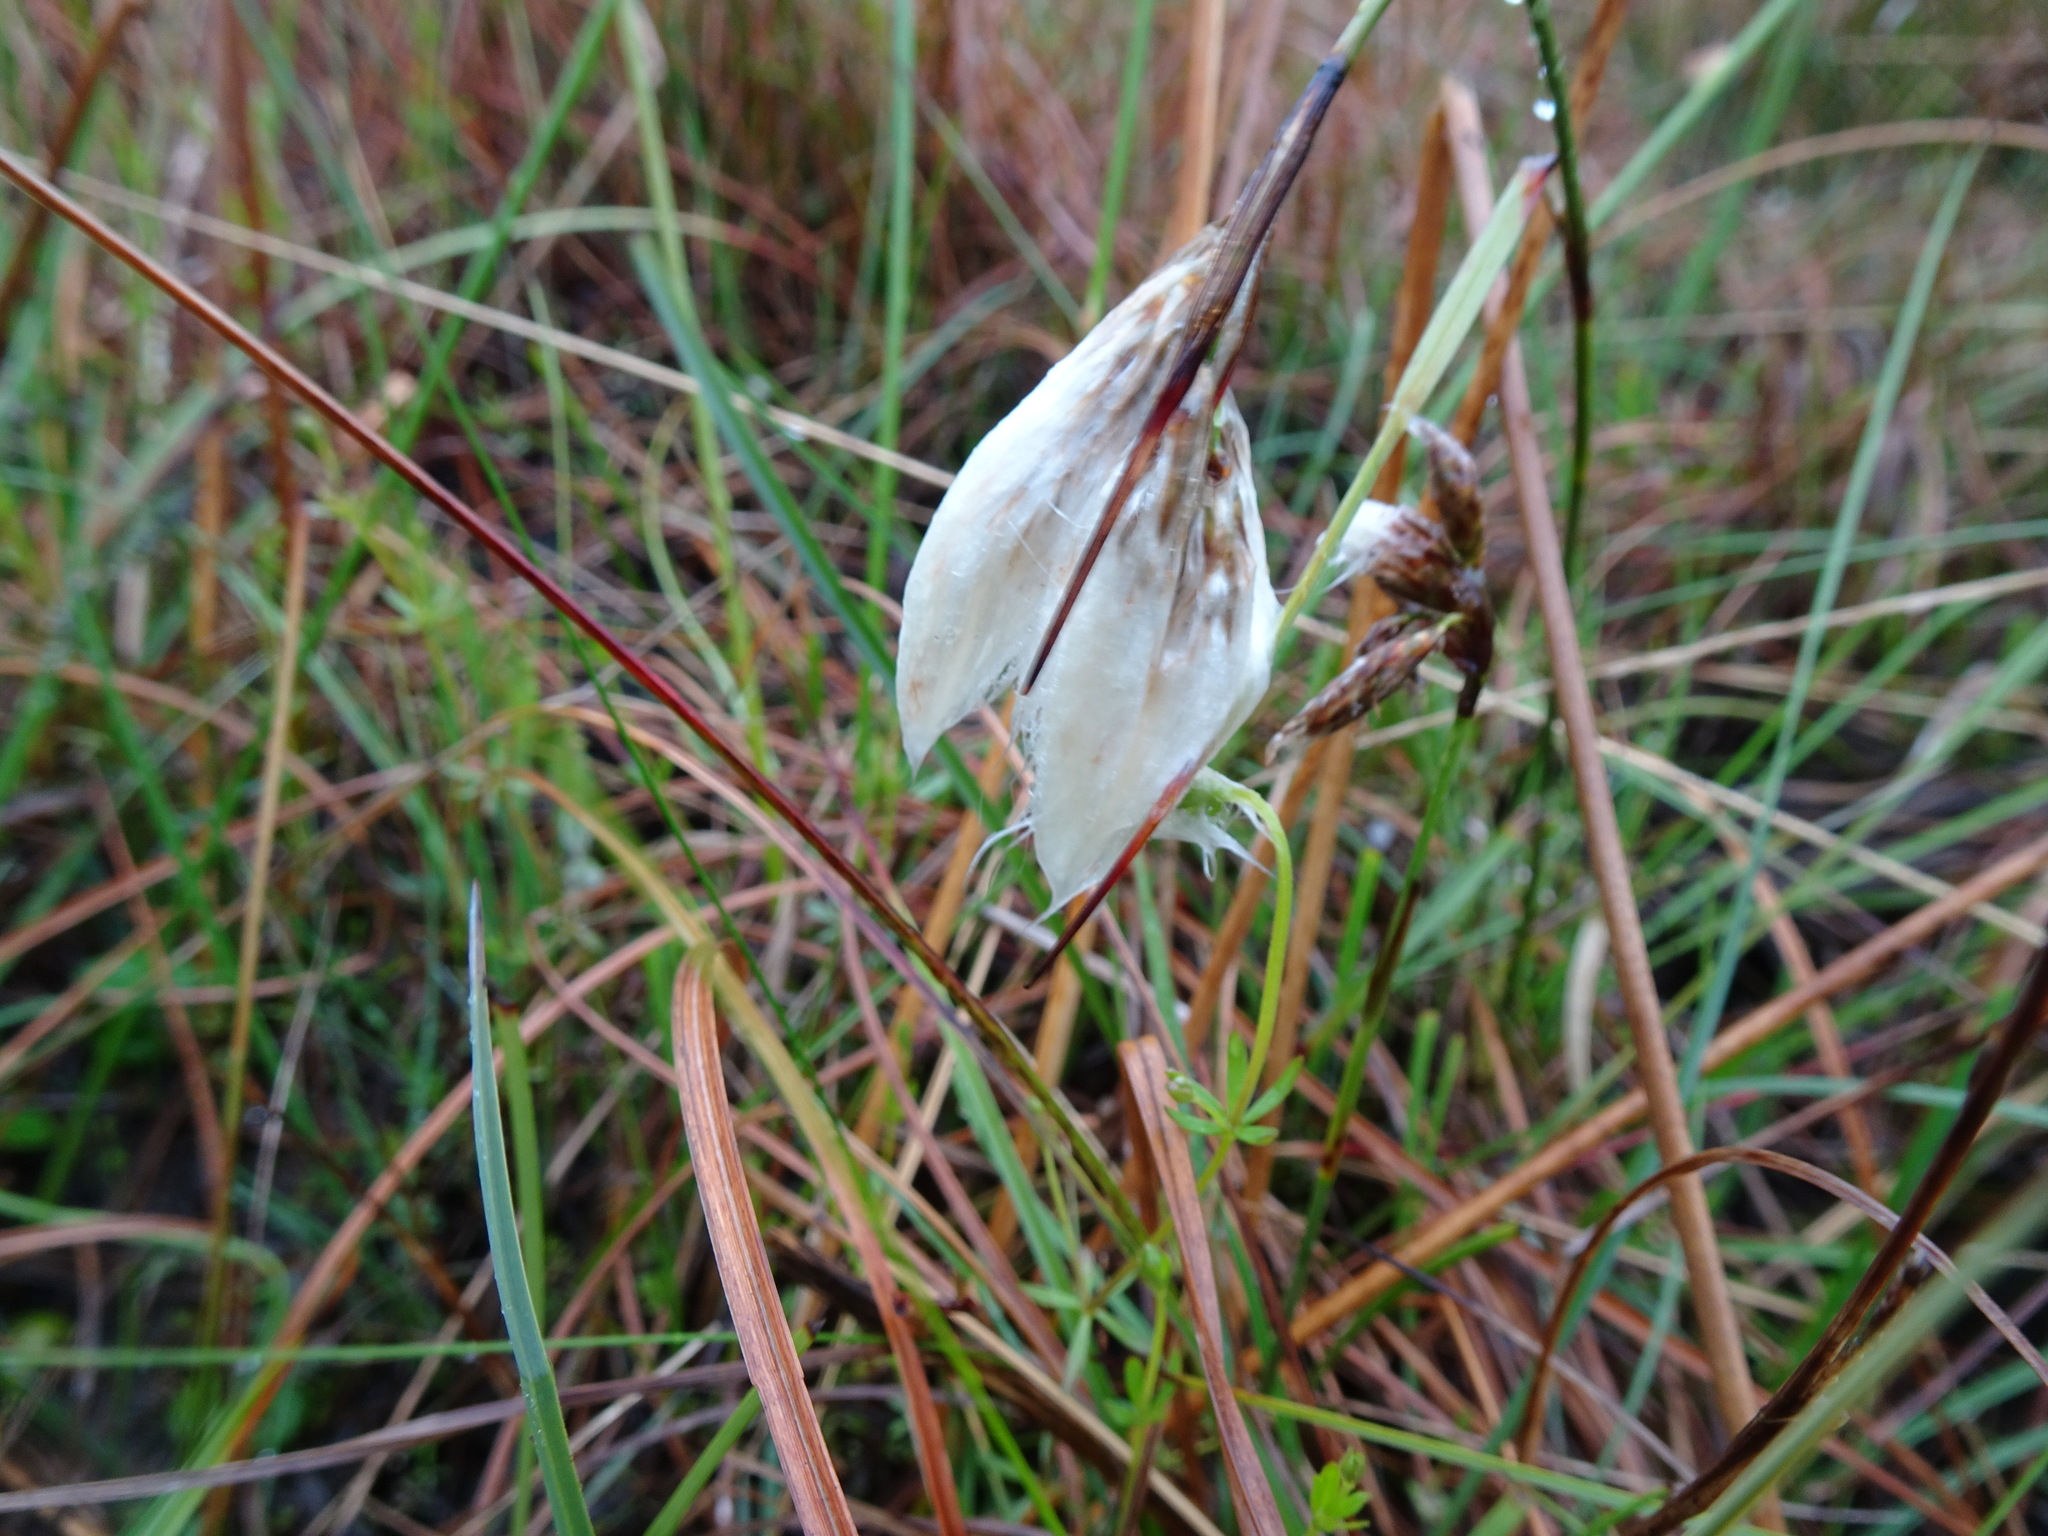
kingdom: Plantae
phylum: Tracheophyta
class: Liliopsida
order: Poales
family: Cyperaceae
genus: Eriophorum
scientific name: Eriophorum angustifolium
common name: Common cottongrass
